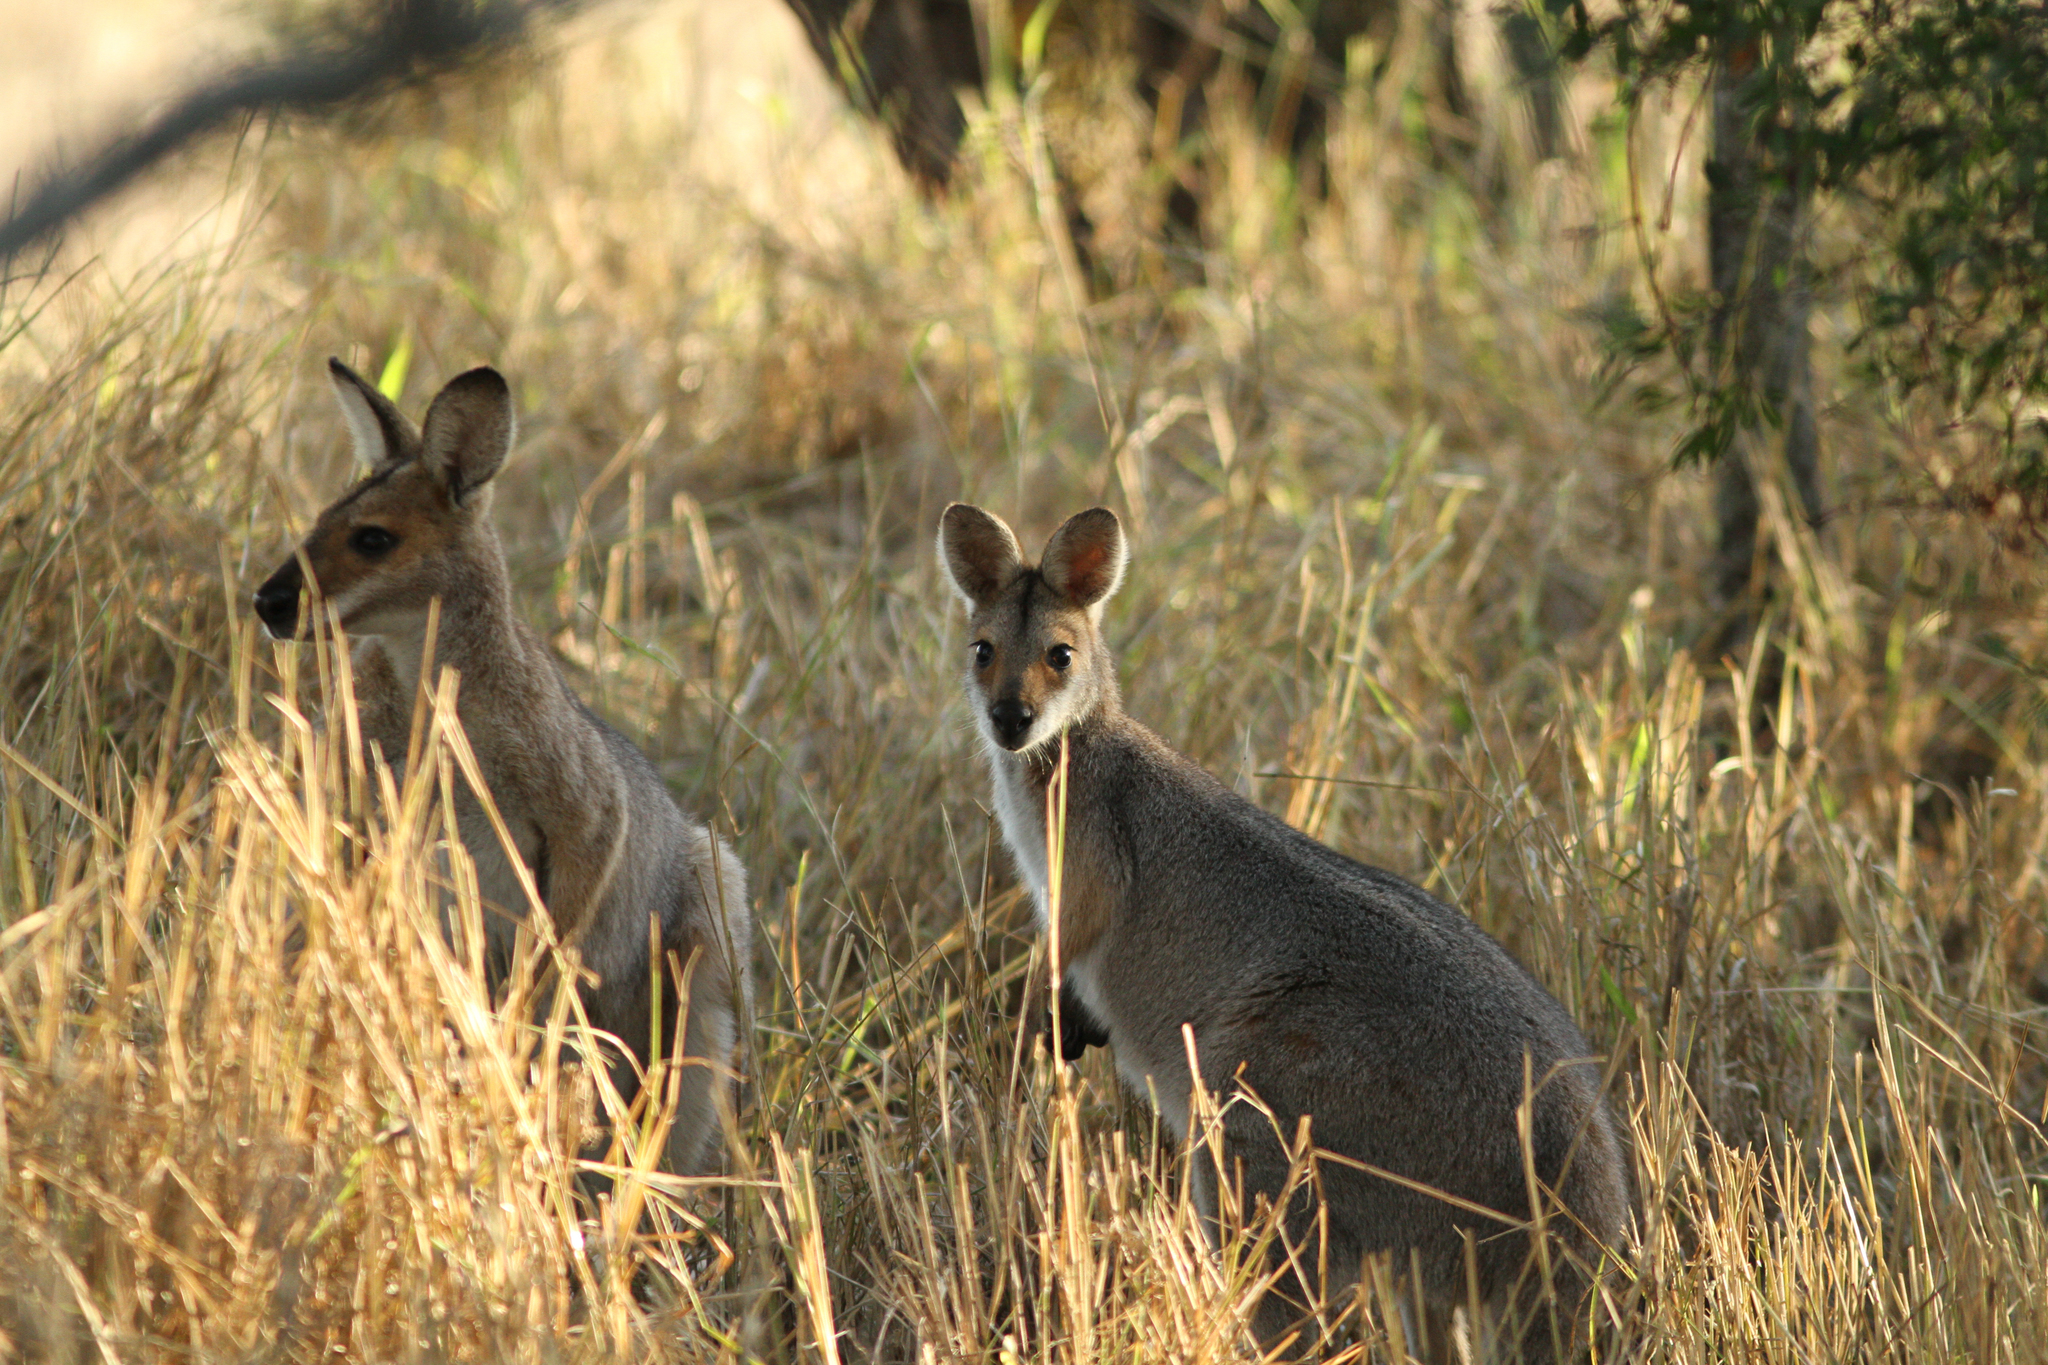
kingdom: Animalia
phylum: Chordata
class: Mammalia
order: Diprotodontia
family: Macropodidae
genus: Notamacropus
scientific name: Notamacropus rufogriseus
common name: Red-necked wallaby
